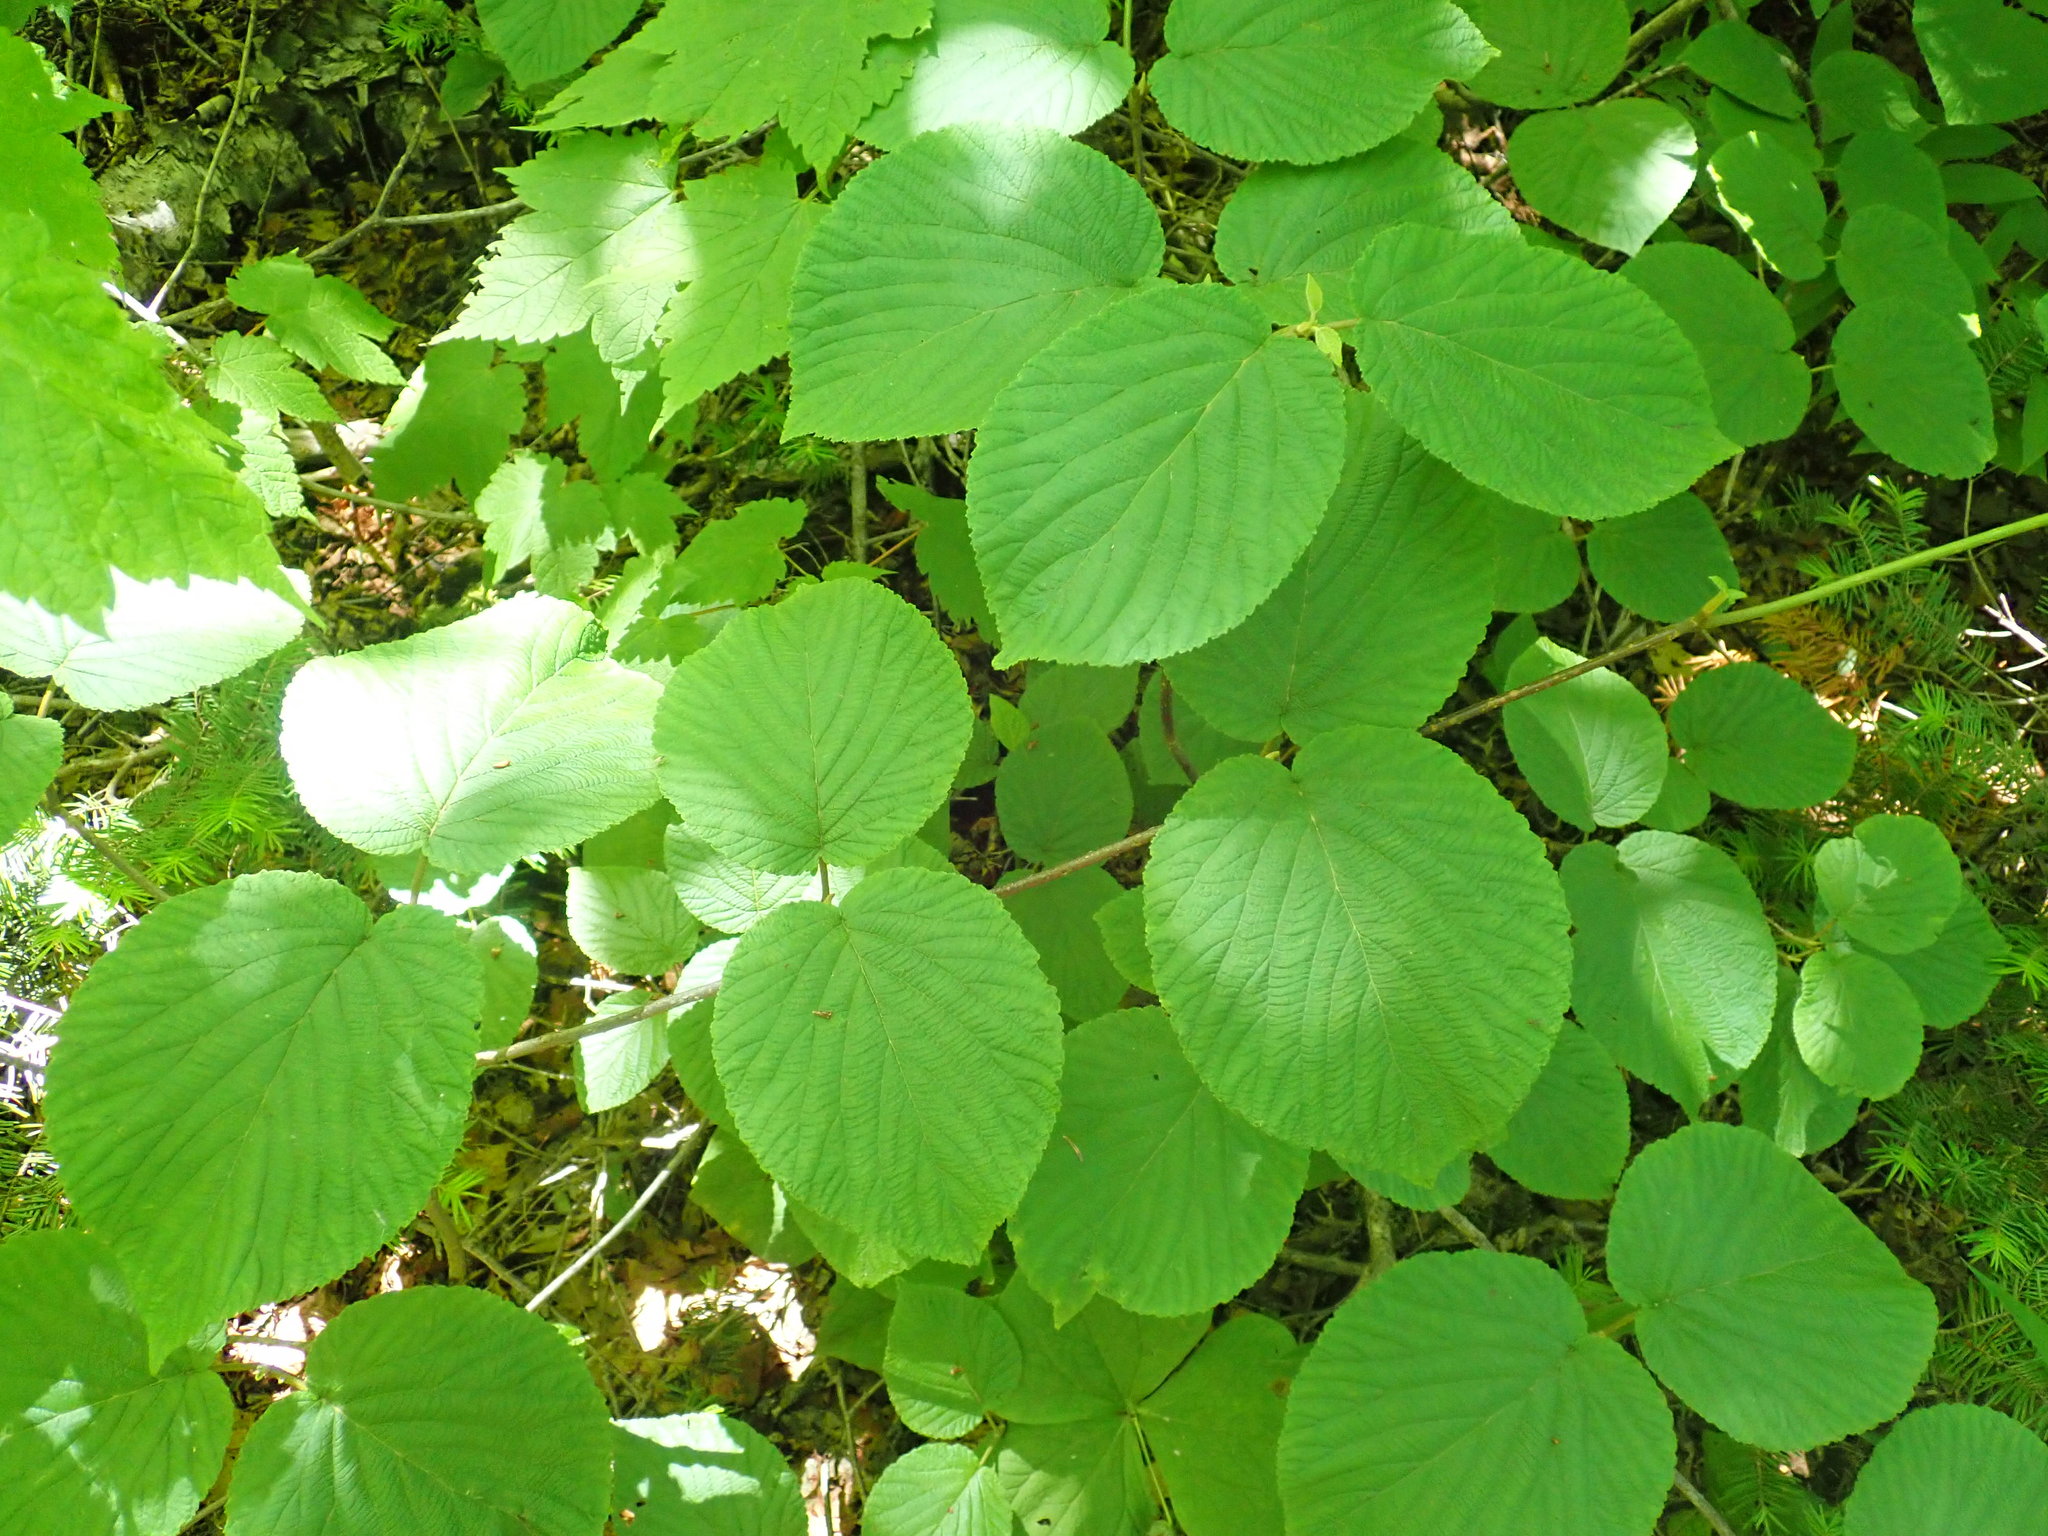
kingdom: Plantae
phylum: Tracheophyta
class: Magnoliopsida
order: Dipsacales
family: Viburnaceae
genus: Viburnum
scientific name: Viburnum lantanoides
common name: Hobblebush
